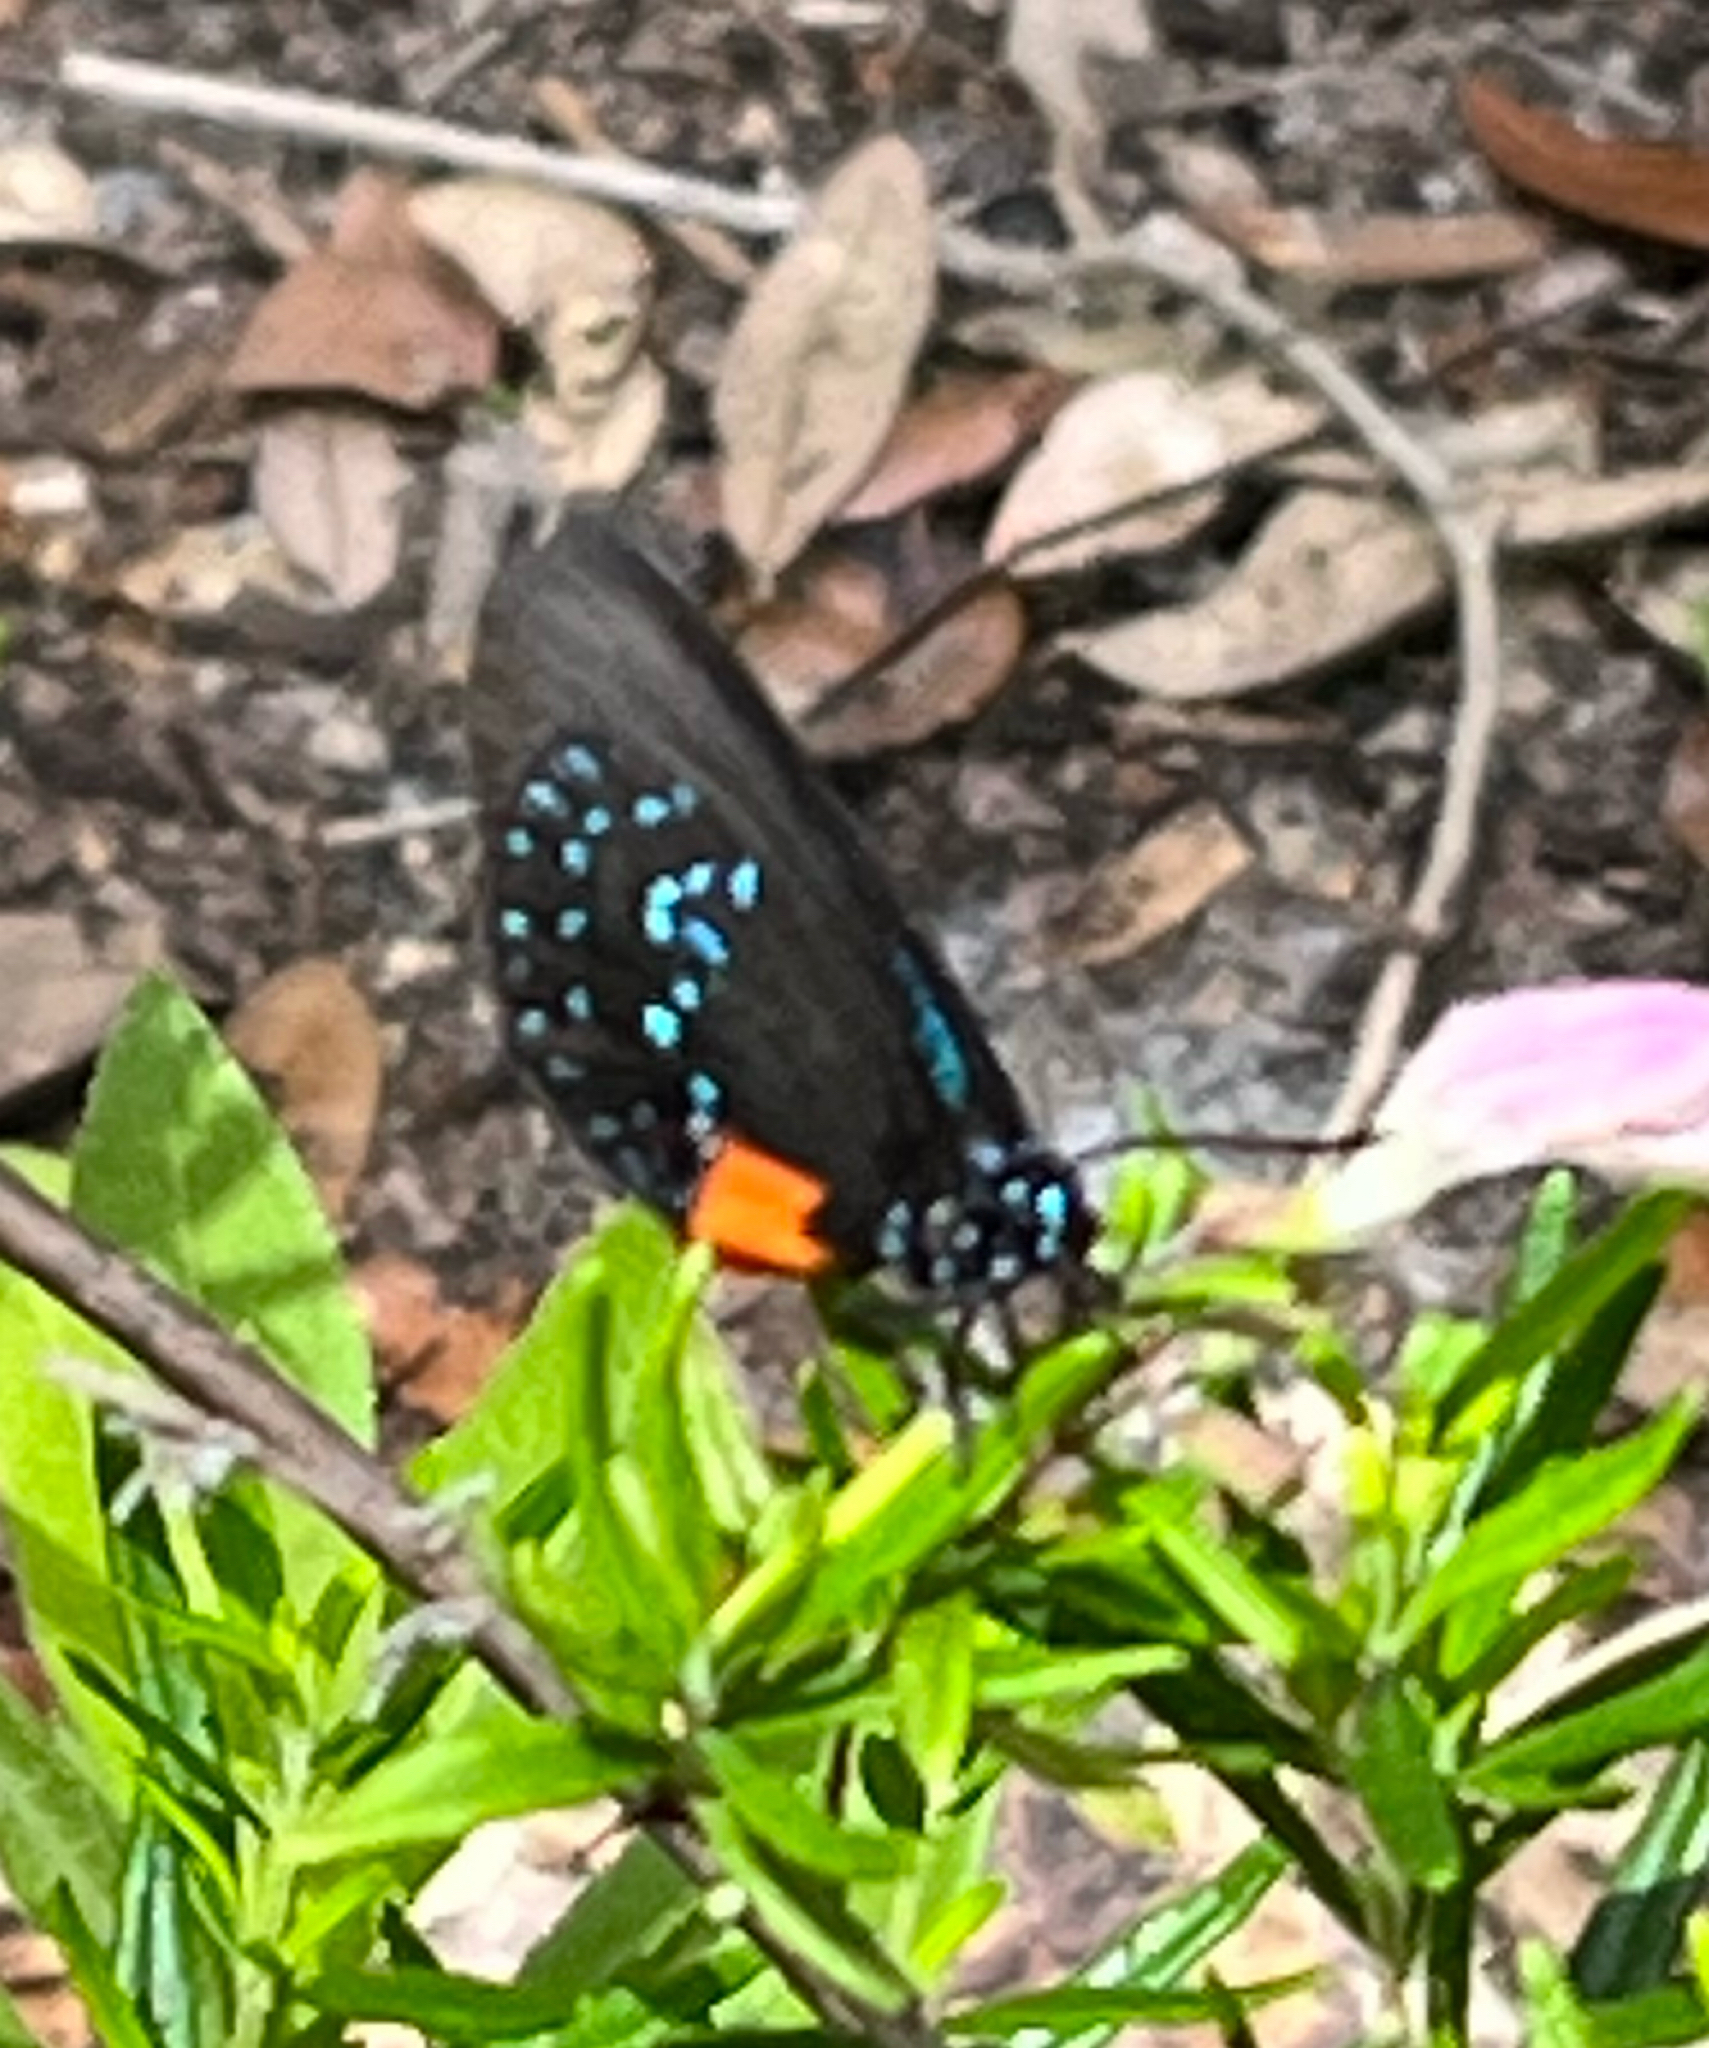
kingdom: Animalia
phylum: Arthropoda
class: Insecta
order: Lepidoptera
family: Lycaenidae
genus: Eumaeus
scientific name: Eumaeus atala
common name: Atala
